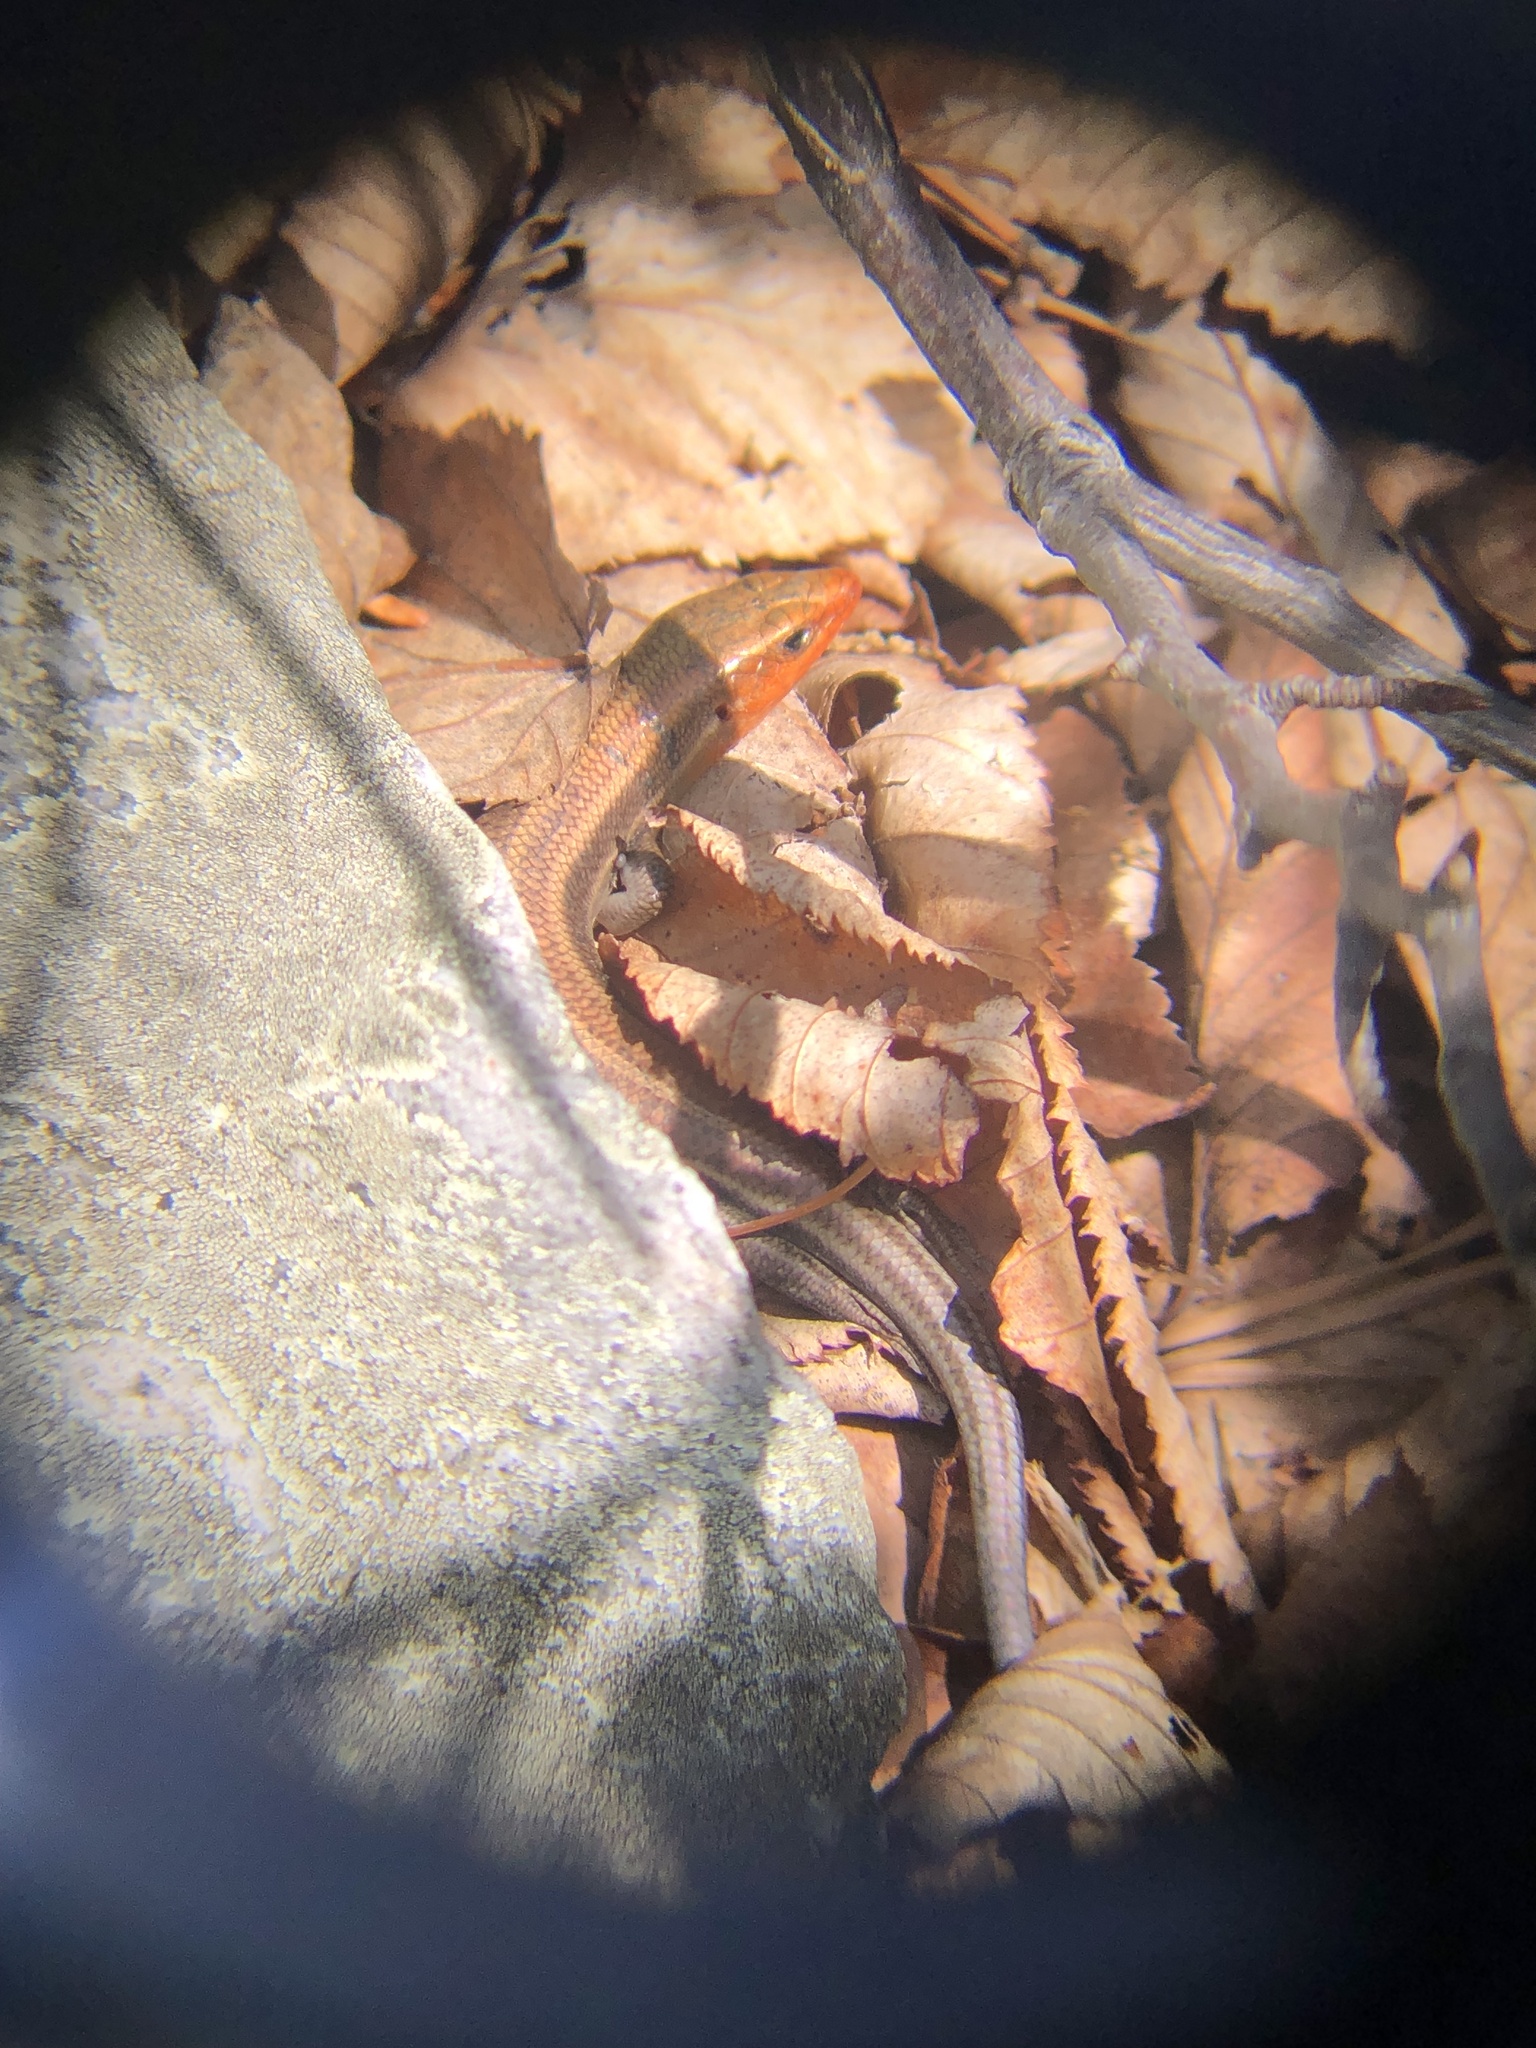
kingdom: Animalia
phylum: Chordata
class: Squamata
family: Scincidae
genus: Plestiodon
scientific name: Plestiodon fasciatus
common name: Five-lined skink
